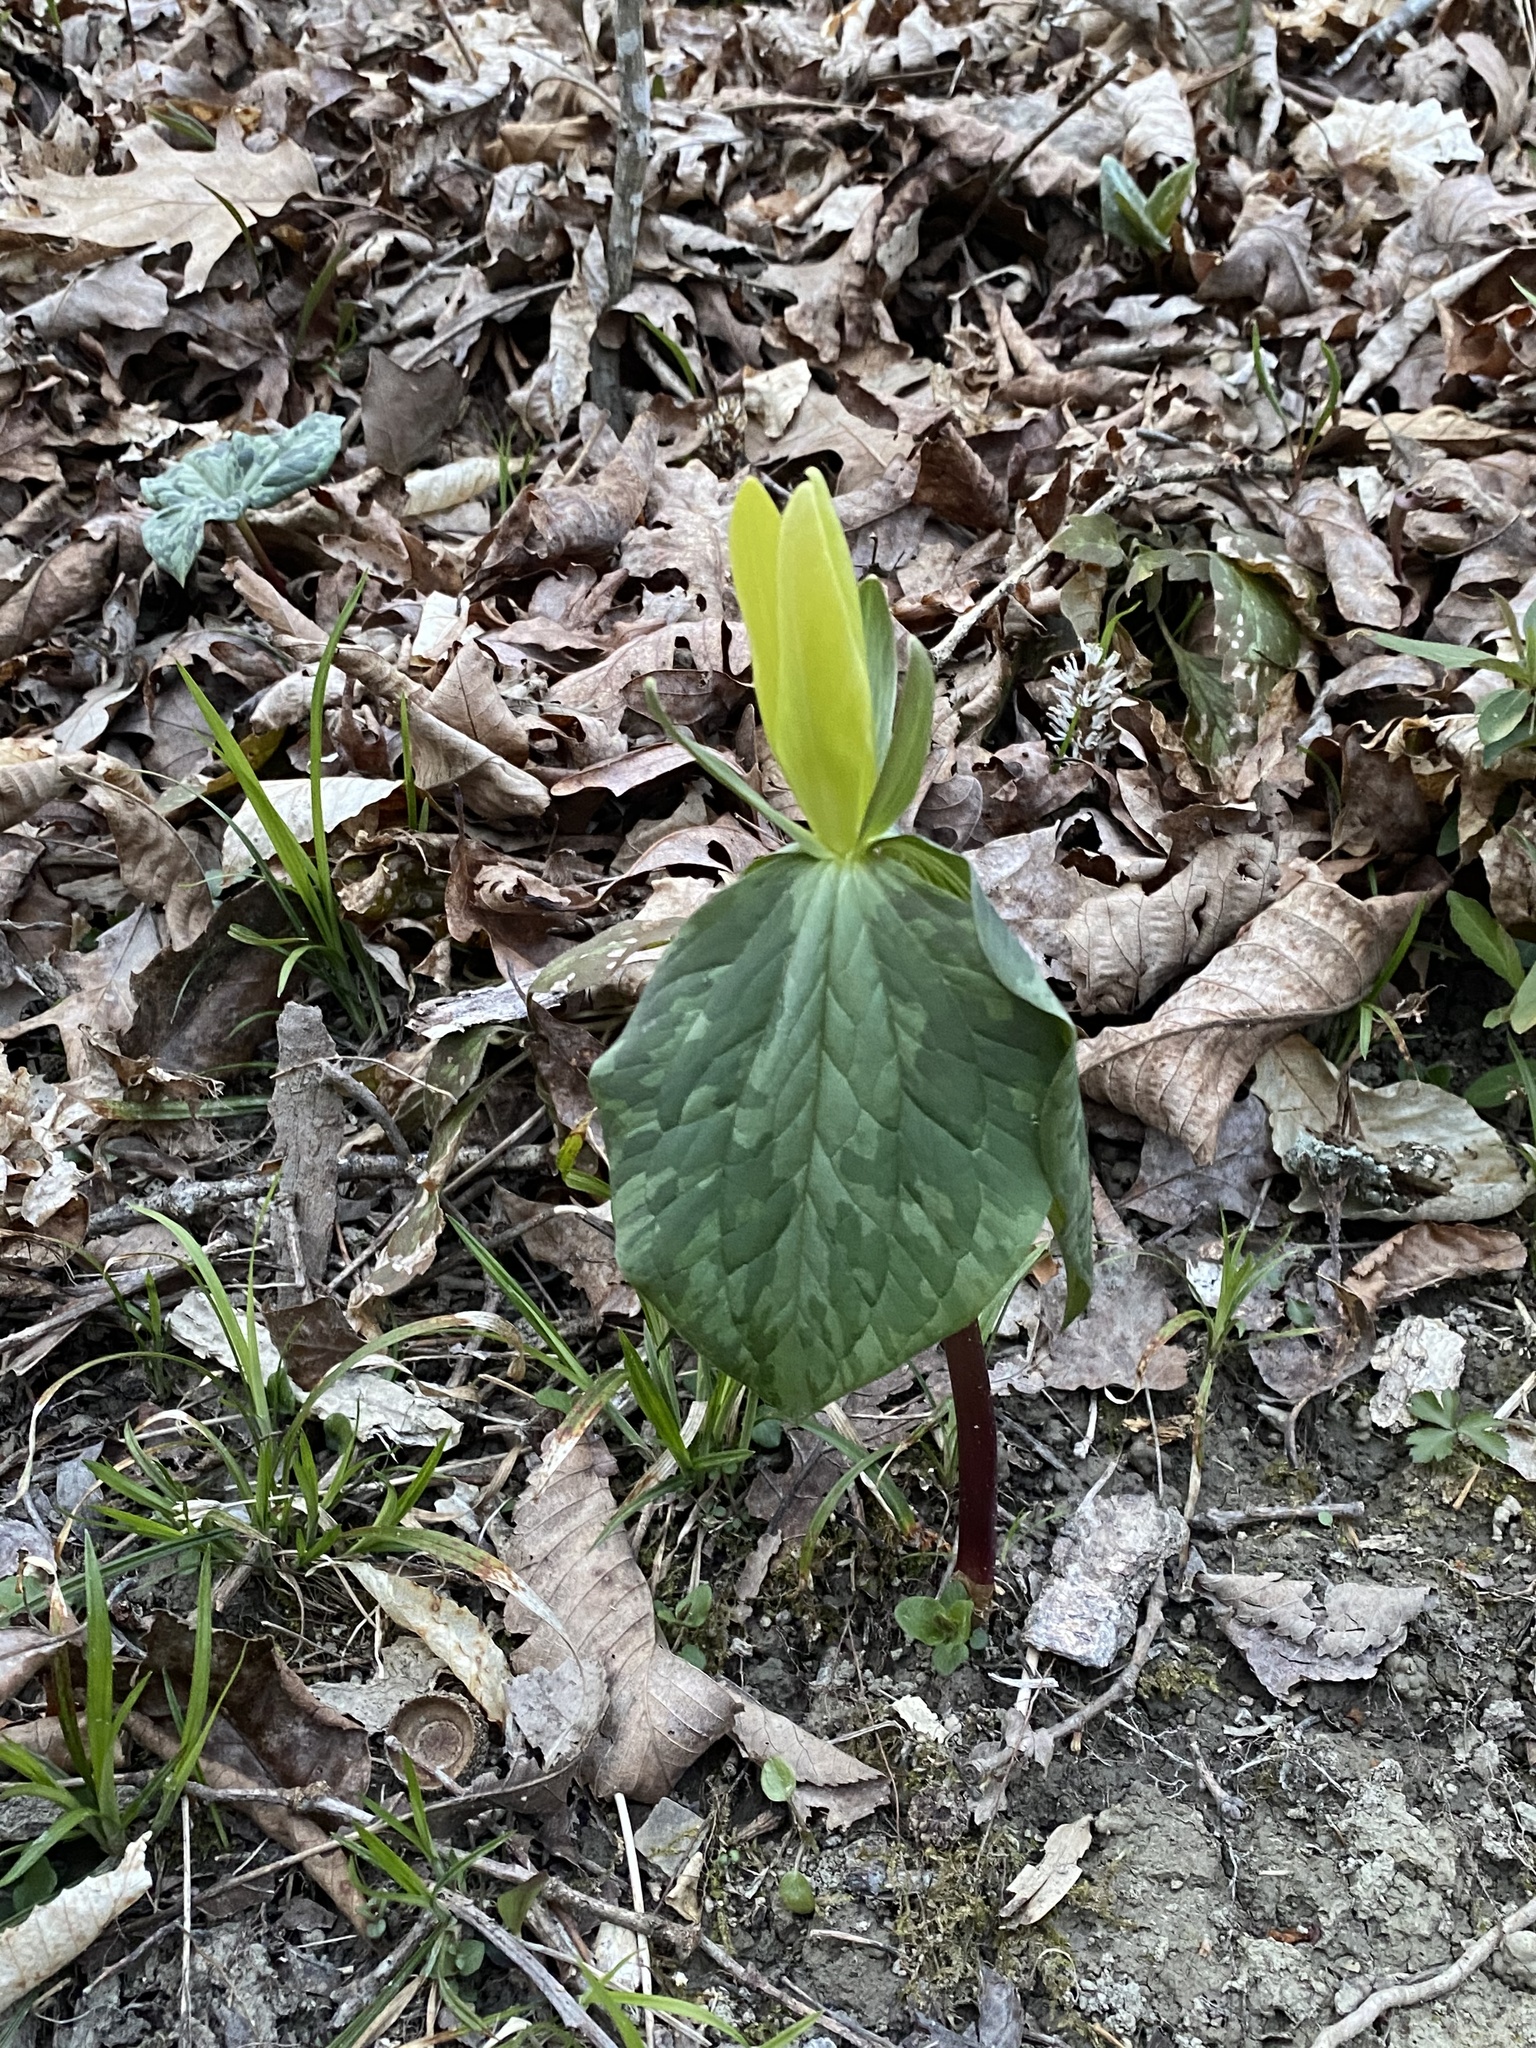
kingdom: Plantae
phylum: Tracheophyta
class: Liliopsida
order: Liliales
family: Melanthiaceae
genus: Trillium
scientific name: Trillium luteum
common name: Wax trillium
